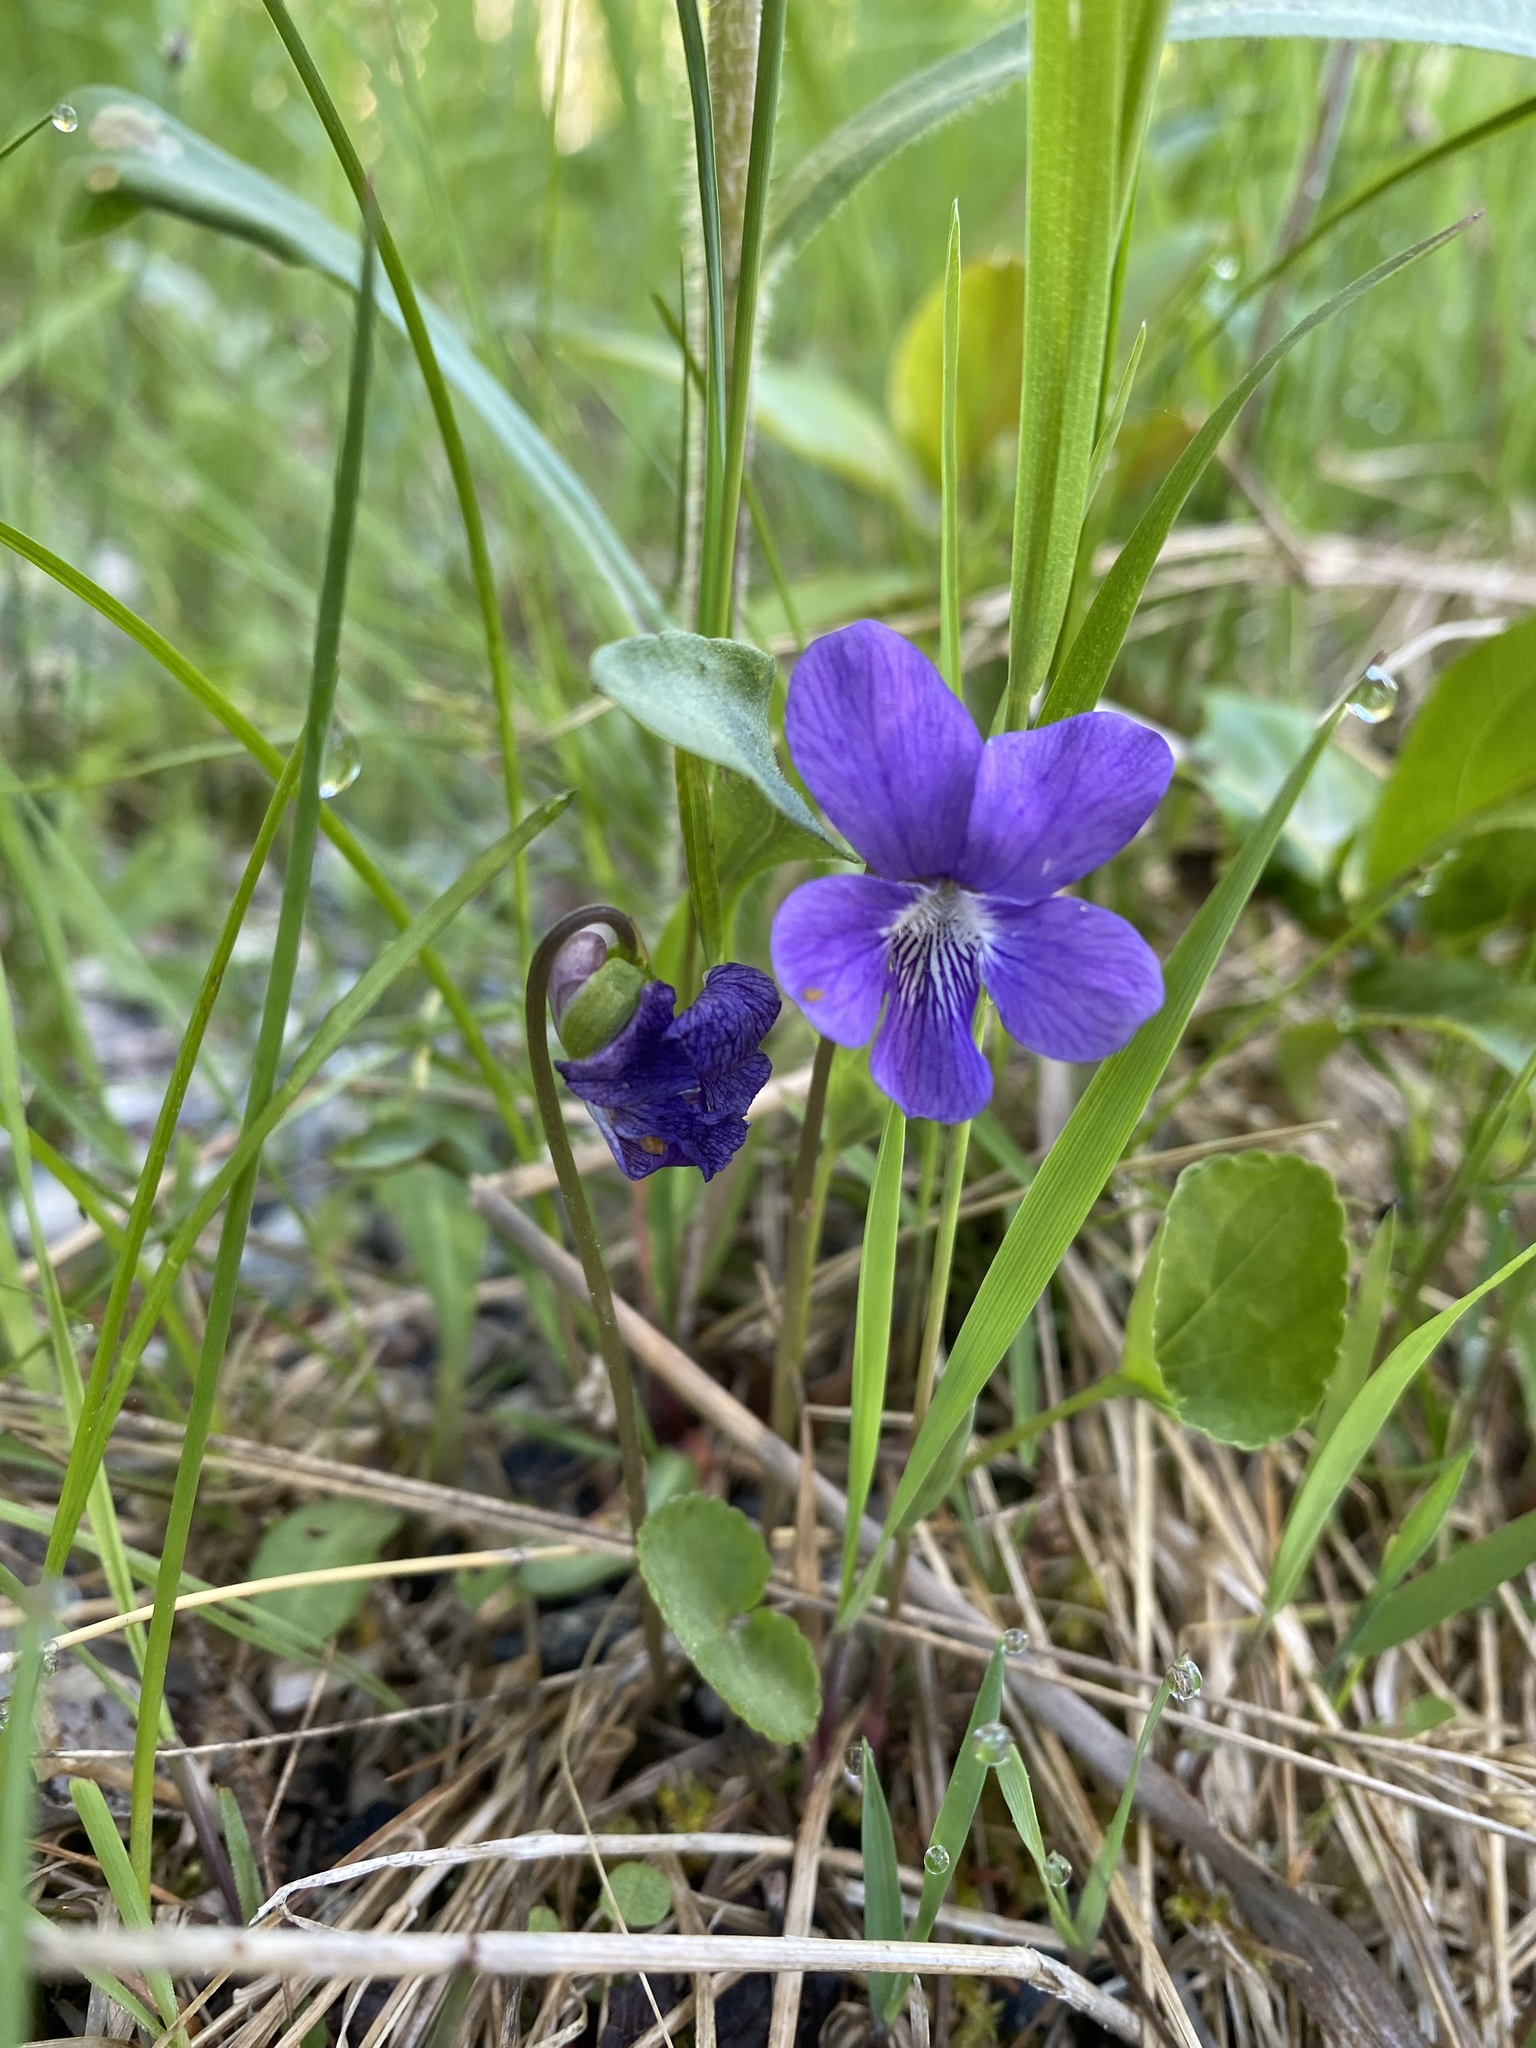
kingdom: Plantae
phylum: Tracheophyta
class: Magnoliopsida
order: Malpighiales
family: Violaceae
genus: Viola
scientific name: Viola sororia
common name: Dooryard violet
